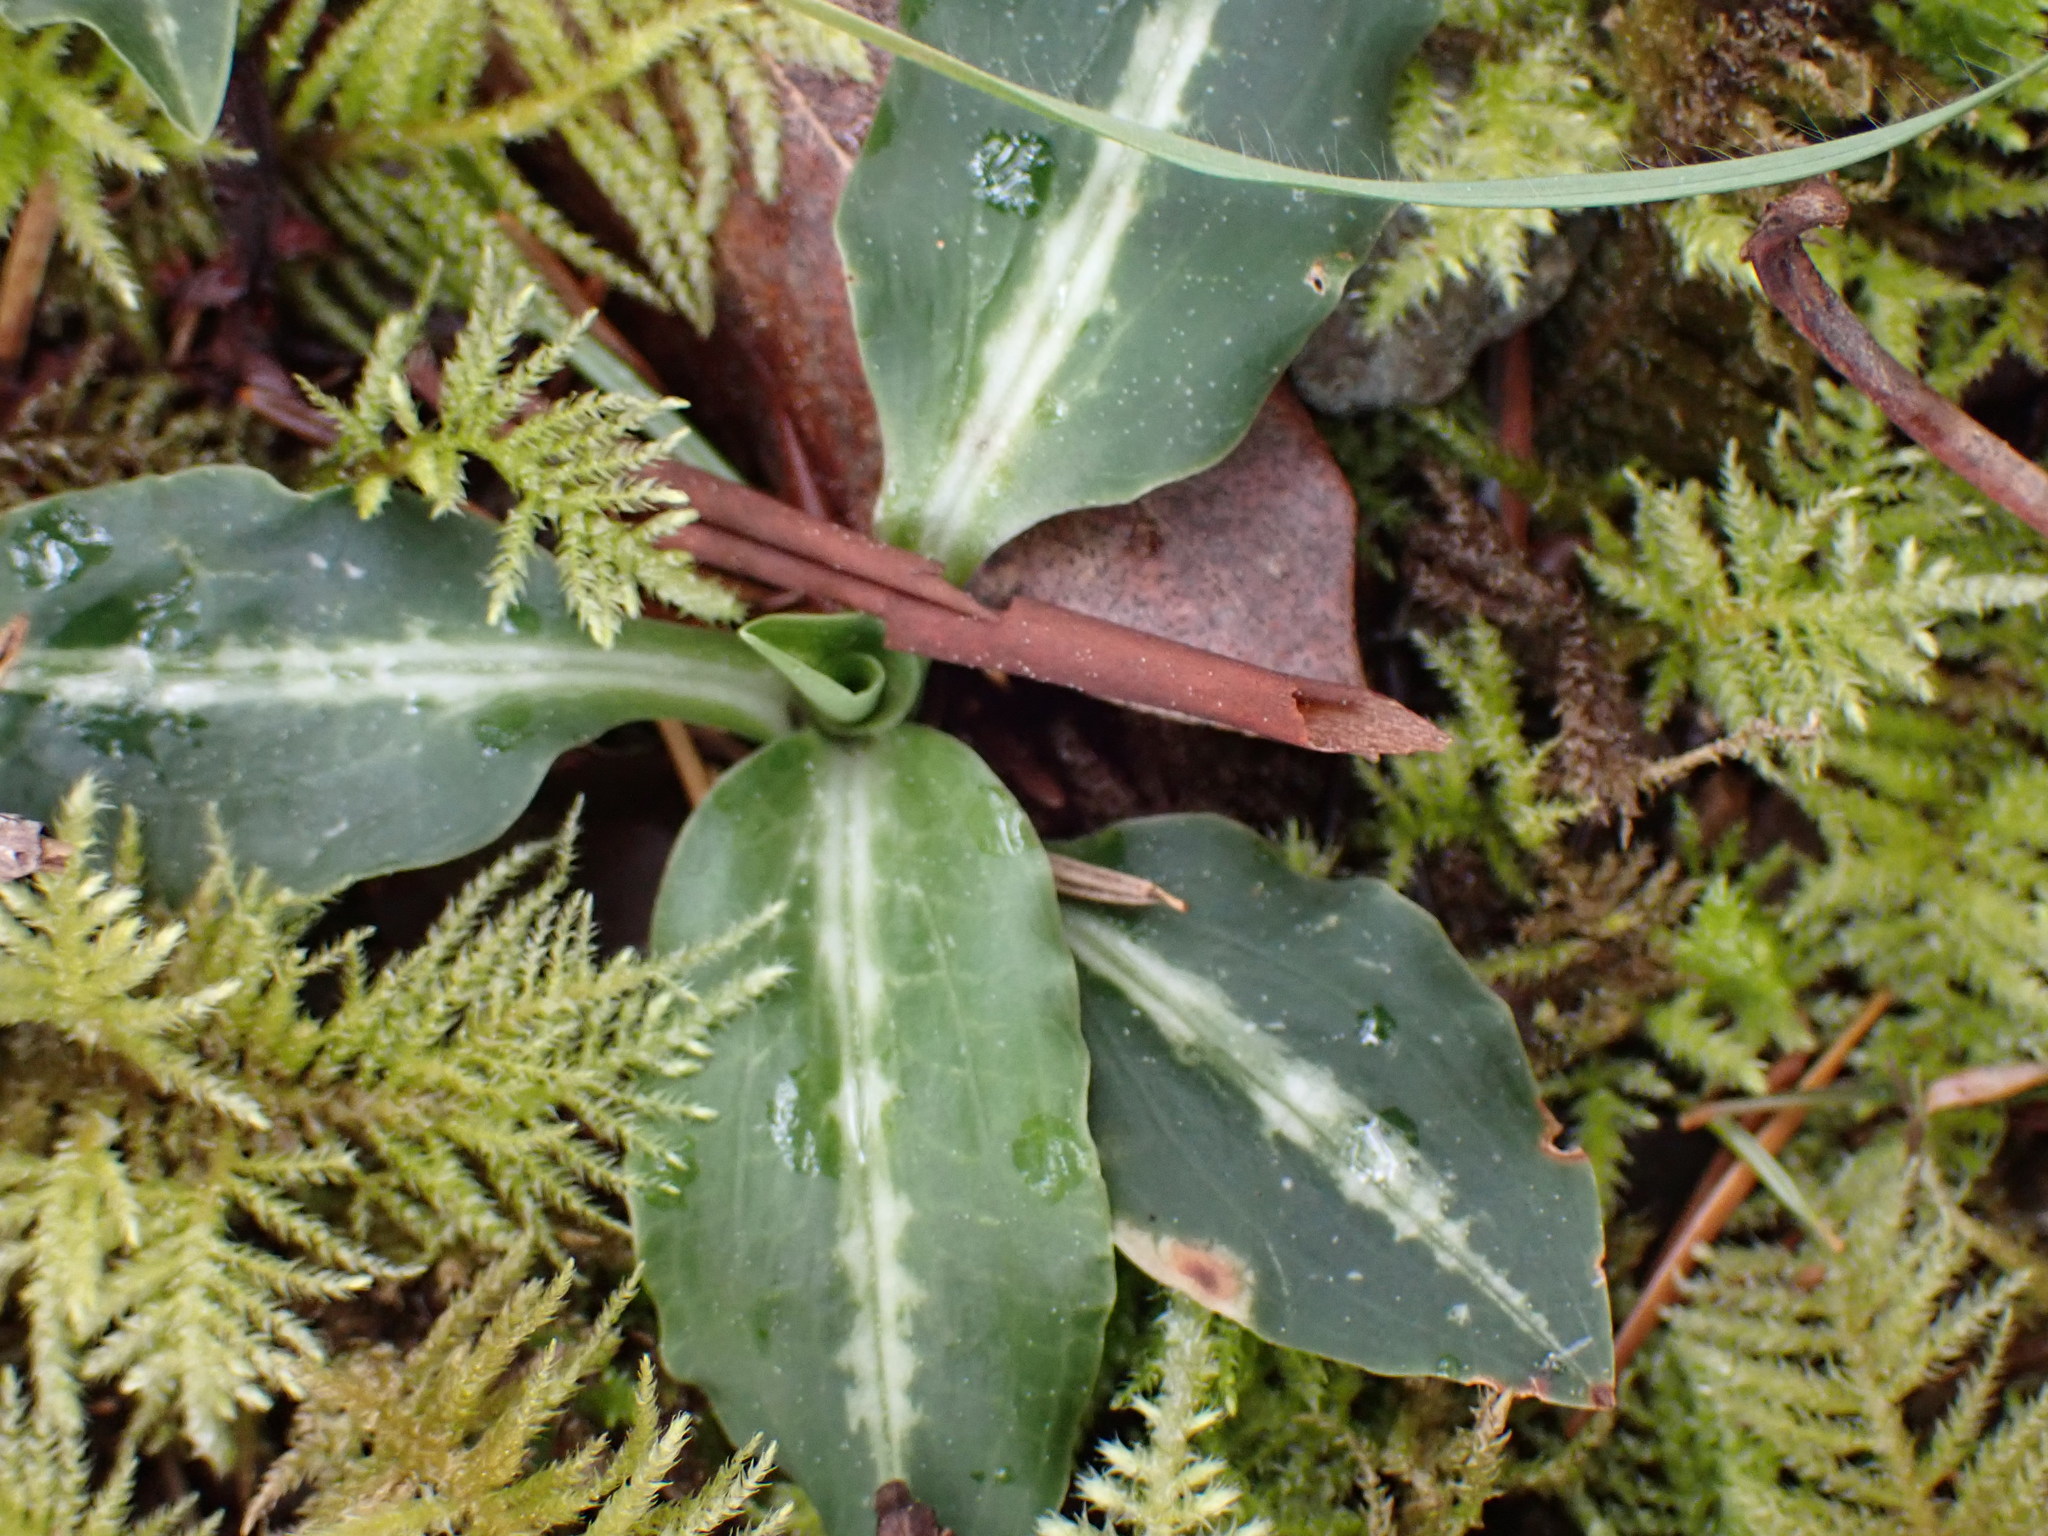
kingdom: Plantae
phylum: Tracheophyta
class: Liliopsida
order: Asparagales
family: Orchidaceae
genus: Goodyera
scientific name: Goodyera oblongifolia
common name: Giant rattlesnake-plantain
